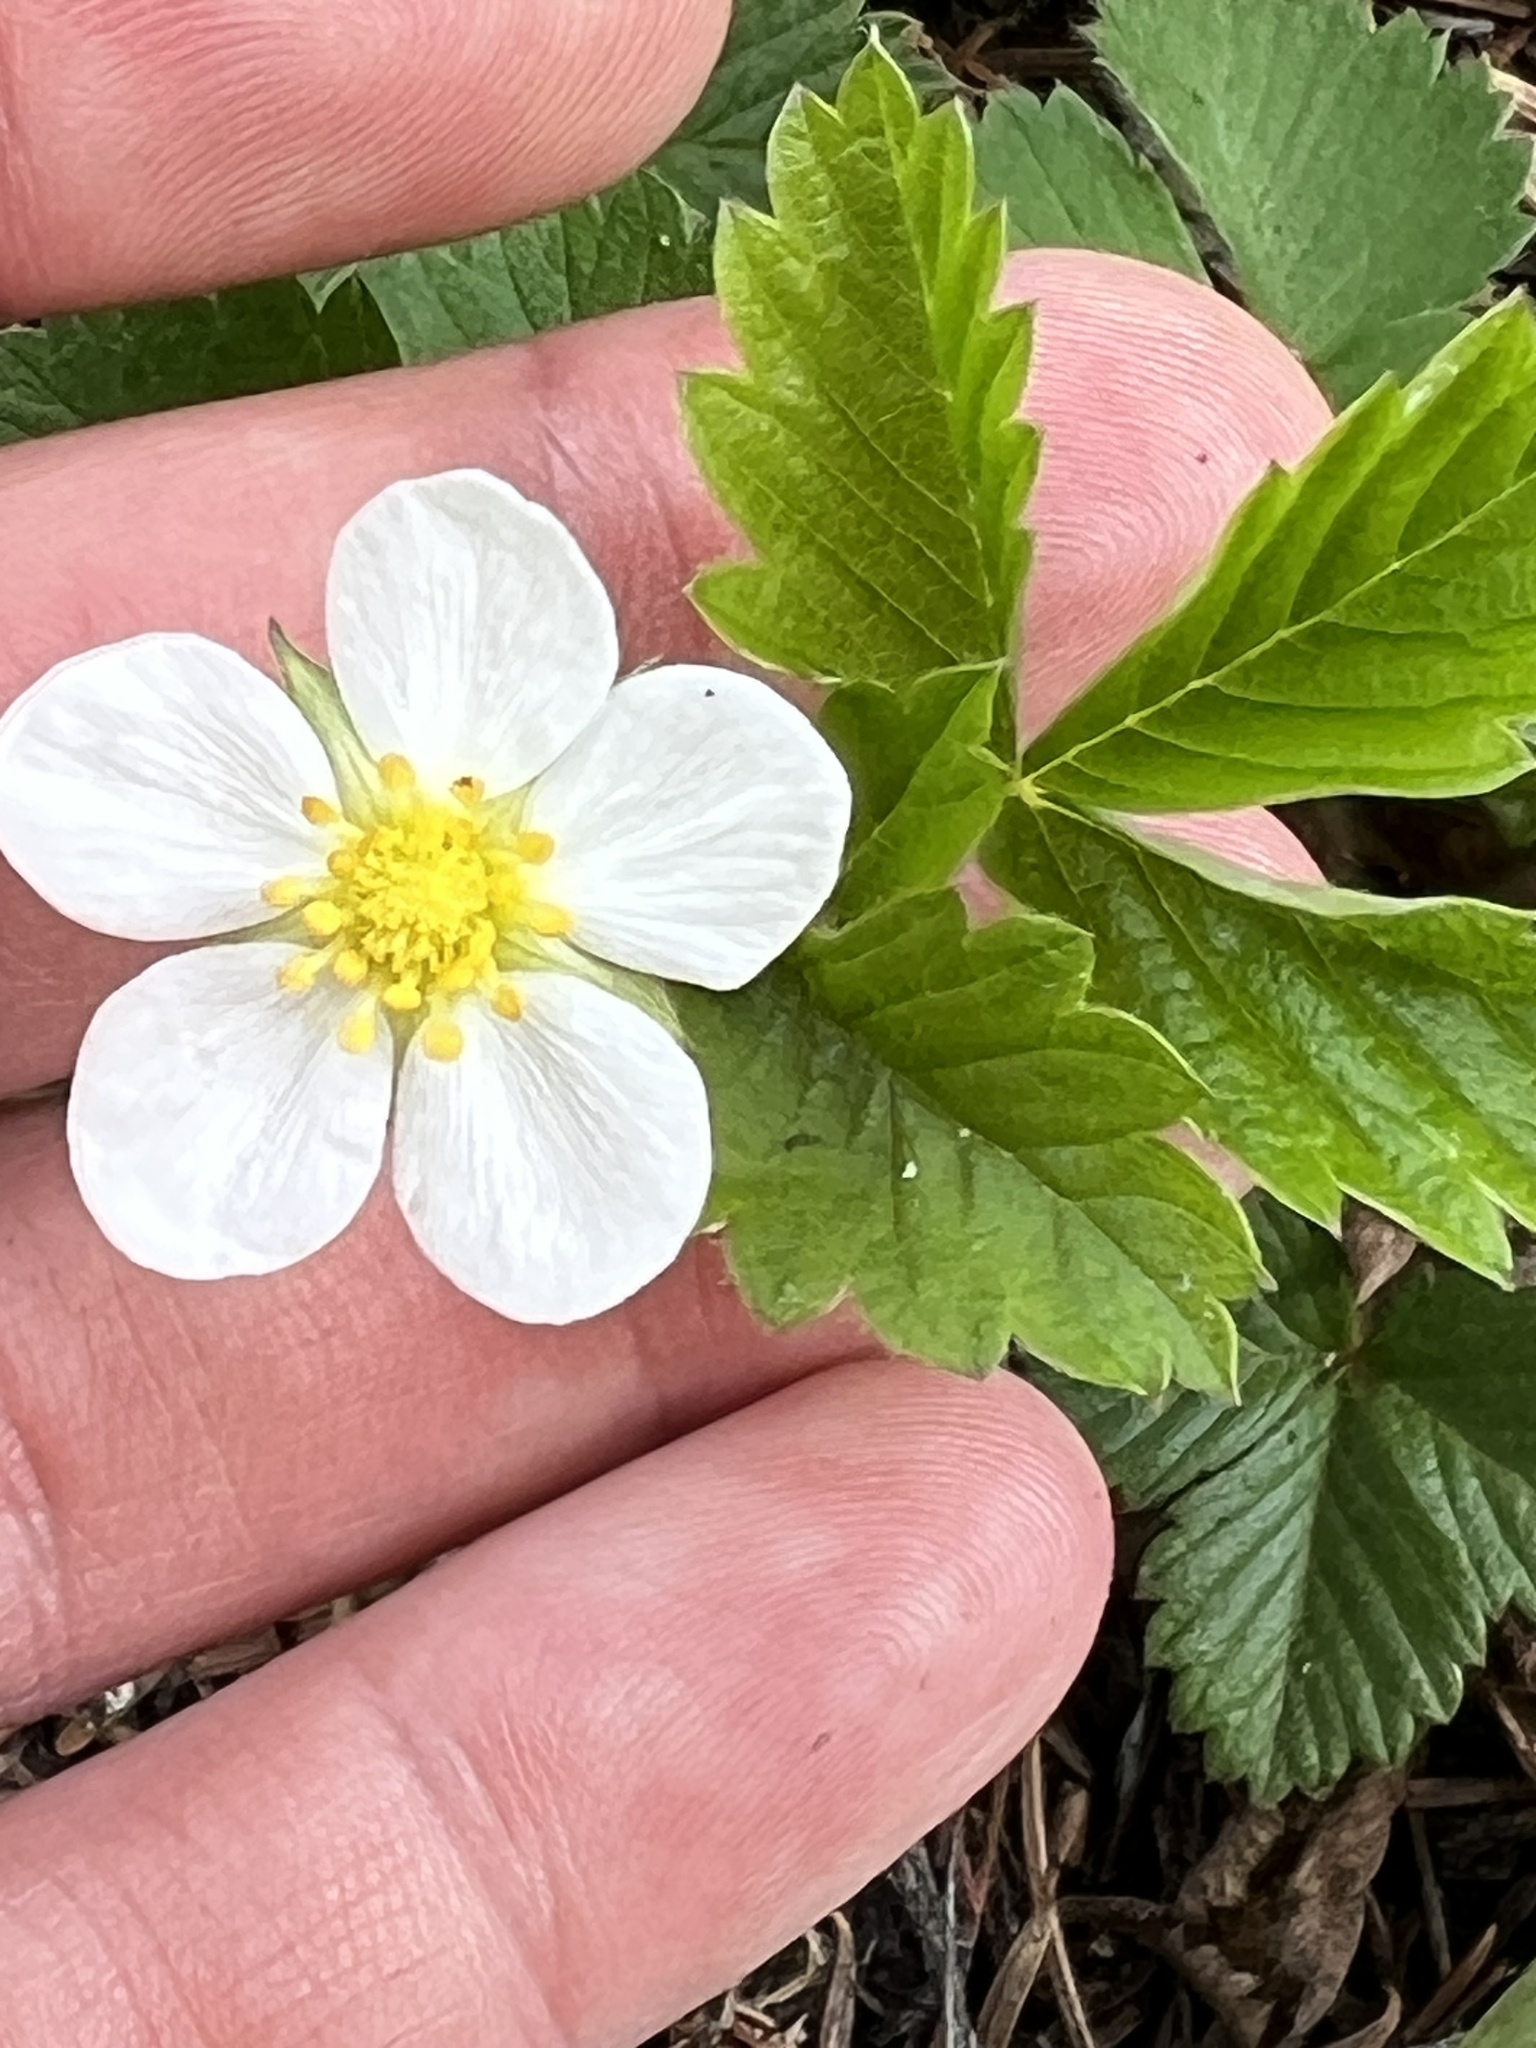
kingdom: Plantae
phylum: Tracheophyta
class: Magnoliopsida
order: Rosales
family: Rosaceae
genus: Fragaria
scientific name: Fragaria vesca
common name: Wild strawberry
